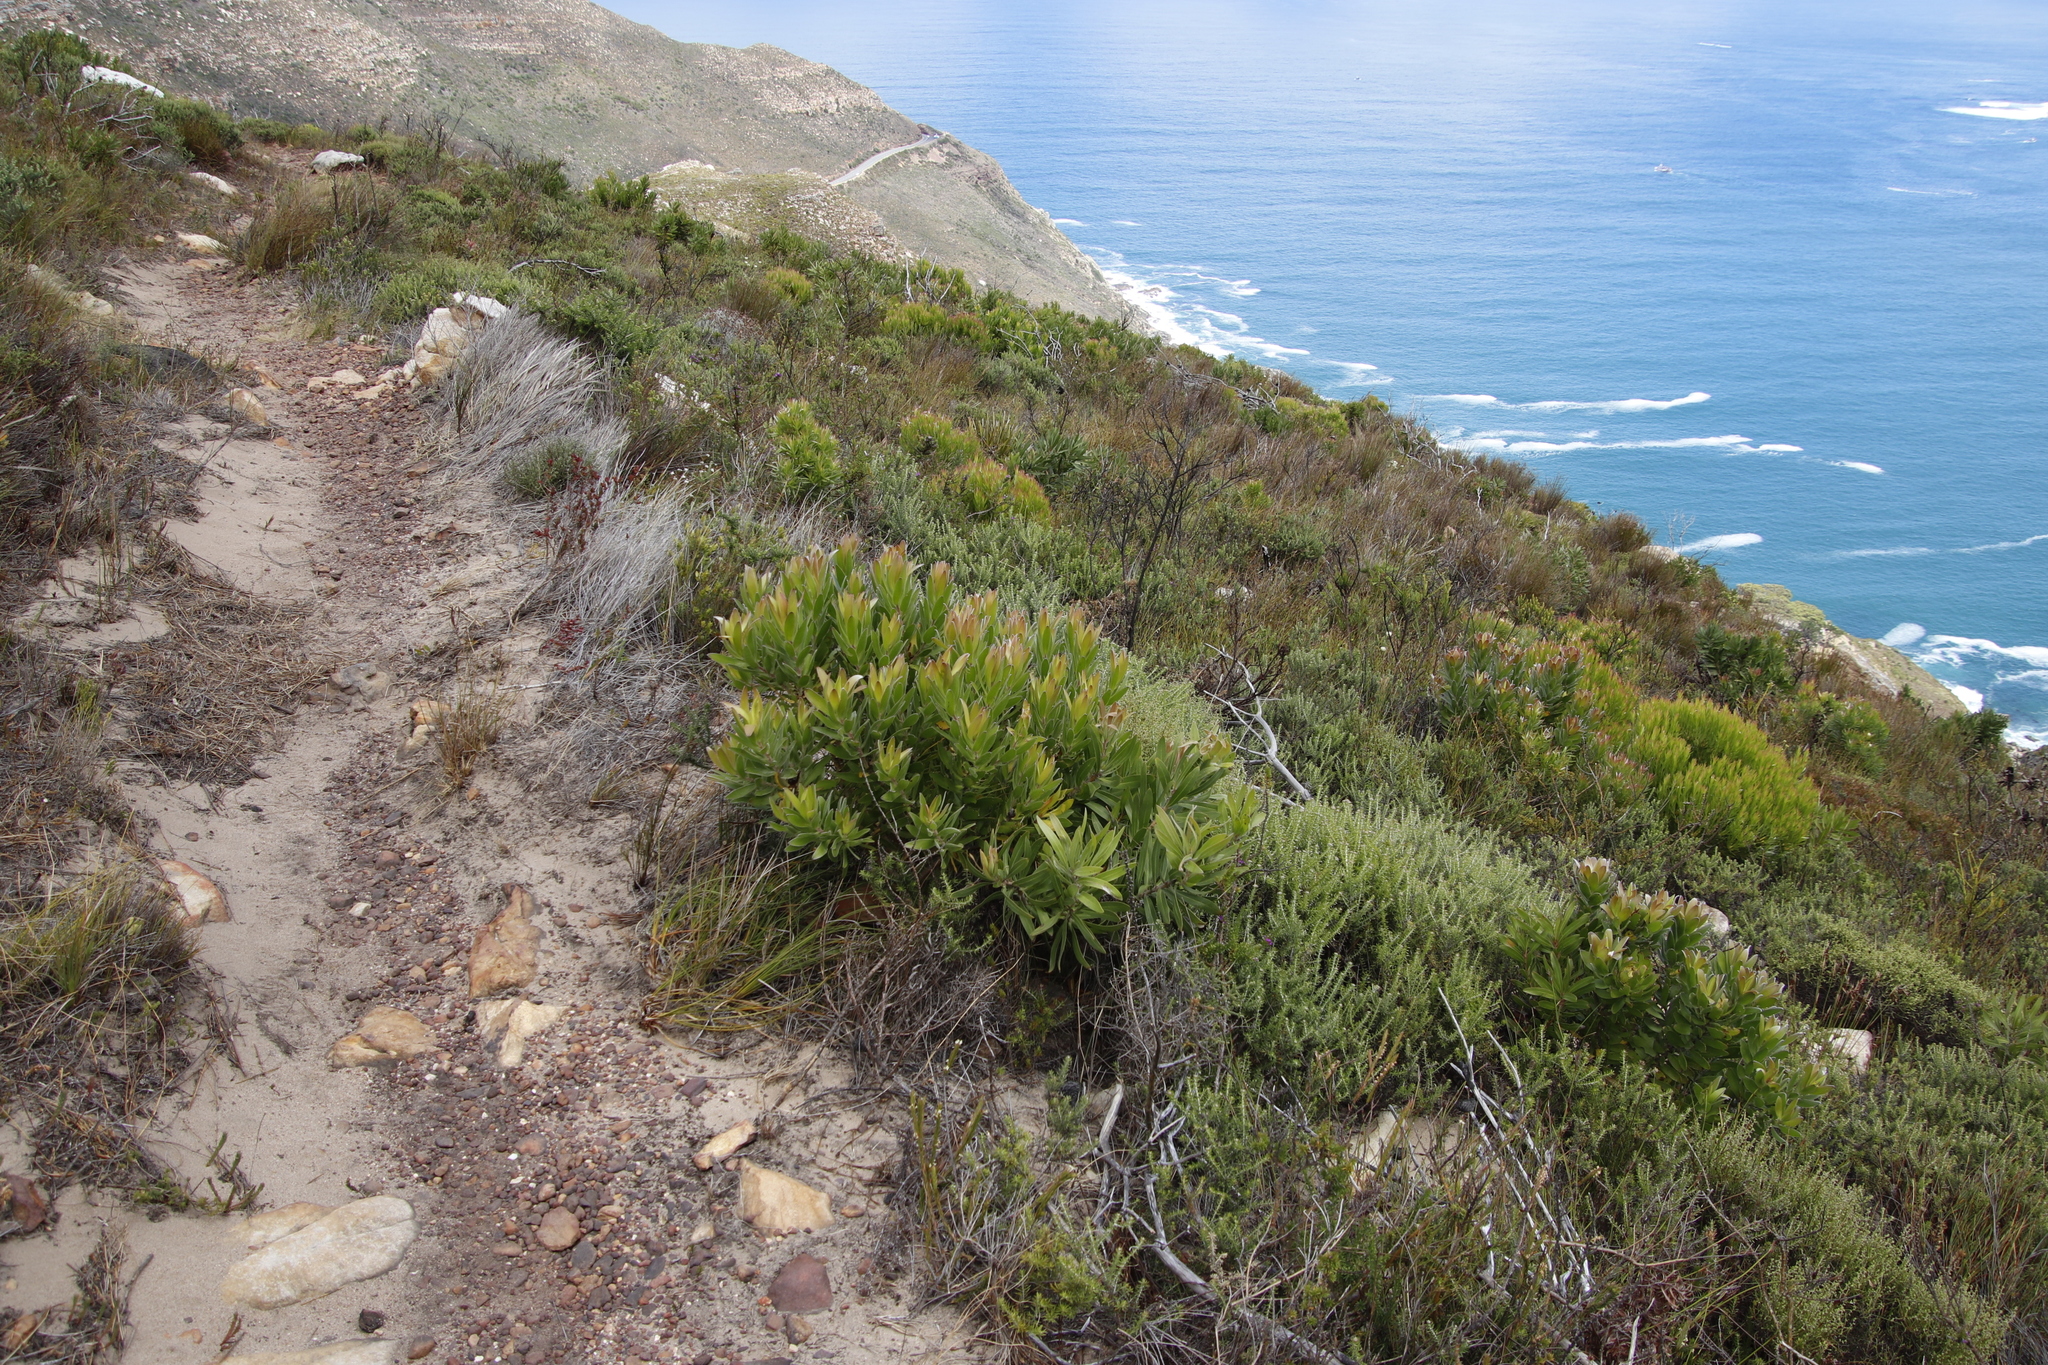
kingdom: Plantae
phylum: Tracheophyta
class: Magnoliopsida
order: Proteales
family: Proteaceae
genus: Leucadendron
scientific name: Leucadendron laureolum
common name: Golden sunshinebush
